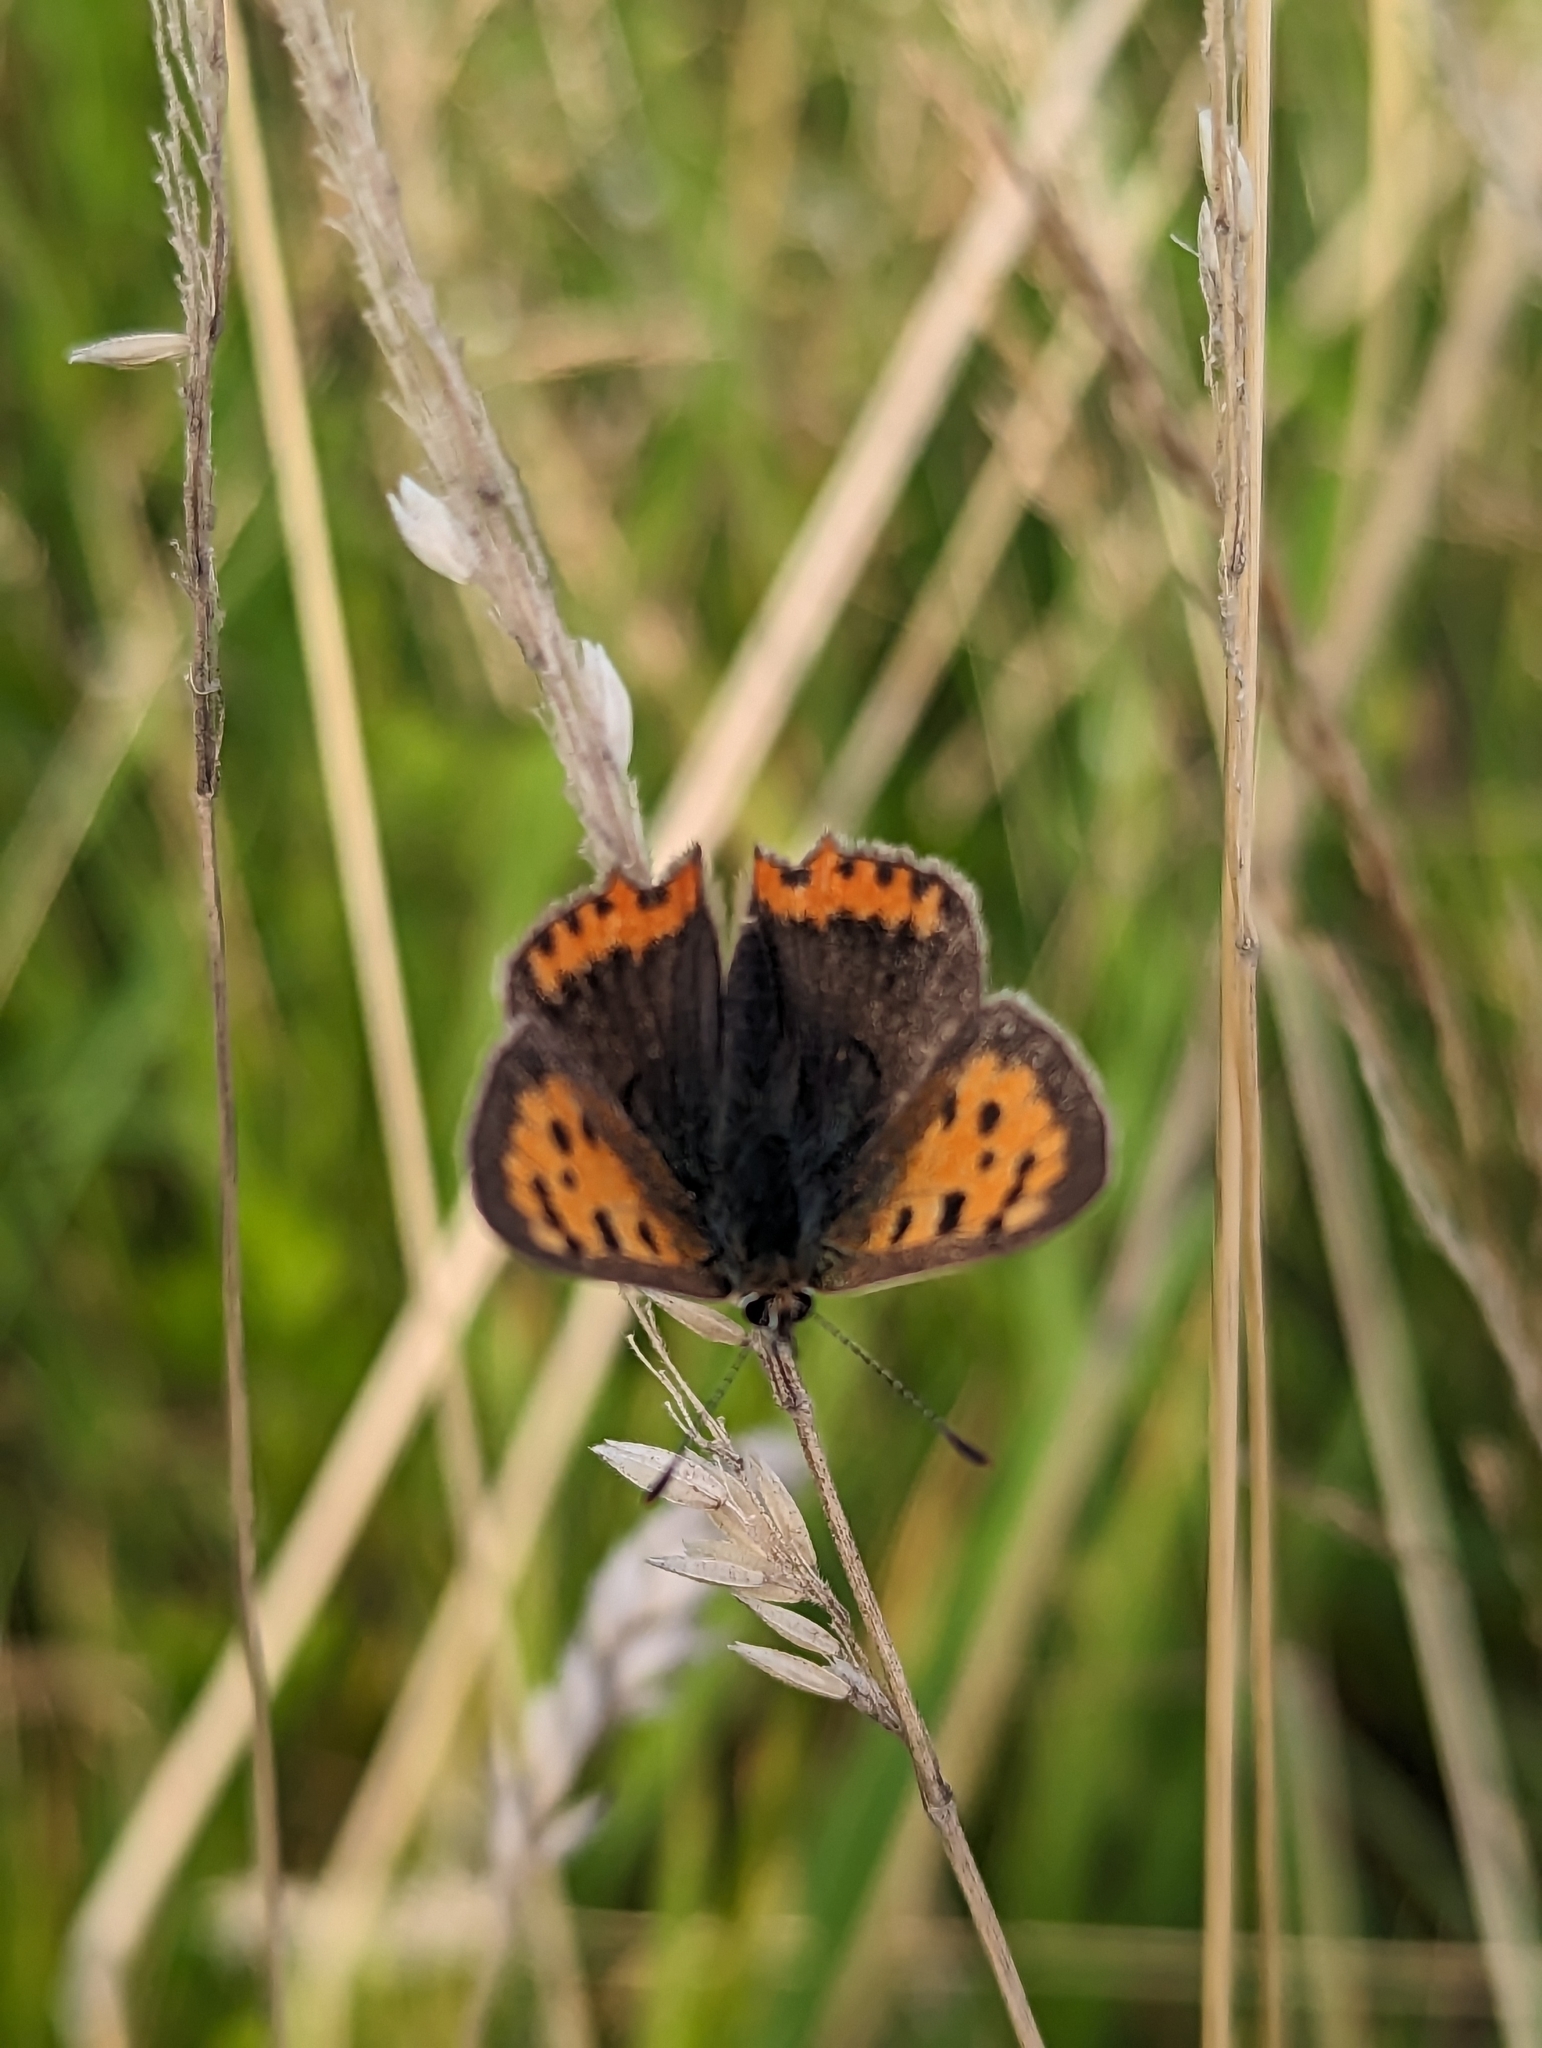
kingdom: Animalia
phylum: Arthropoda
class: Insecta
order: Lepidoptera
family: Lycaenidae
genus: Lycaena
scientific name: Lycaena phlaeas
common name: Small copper
